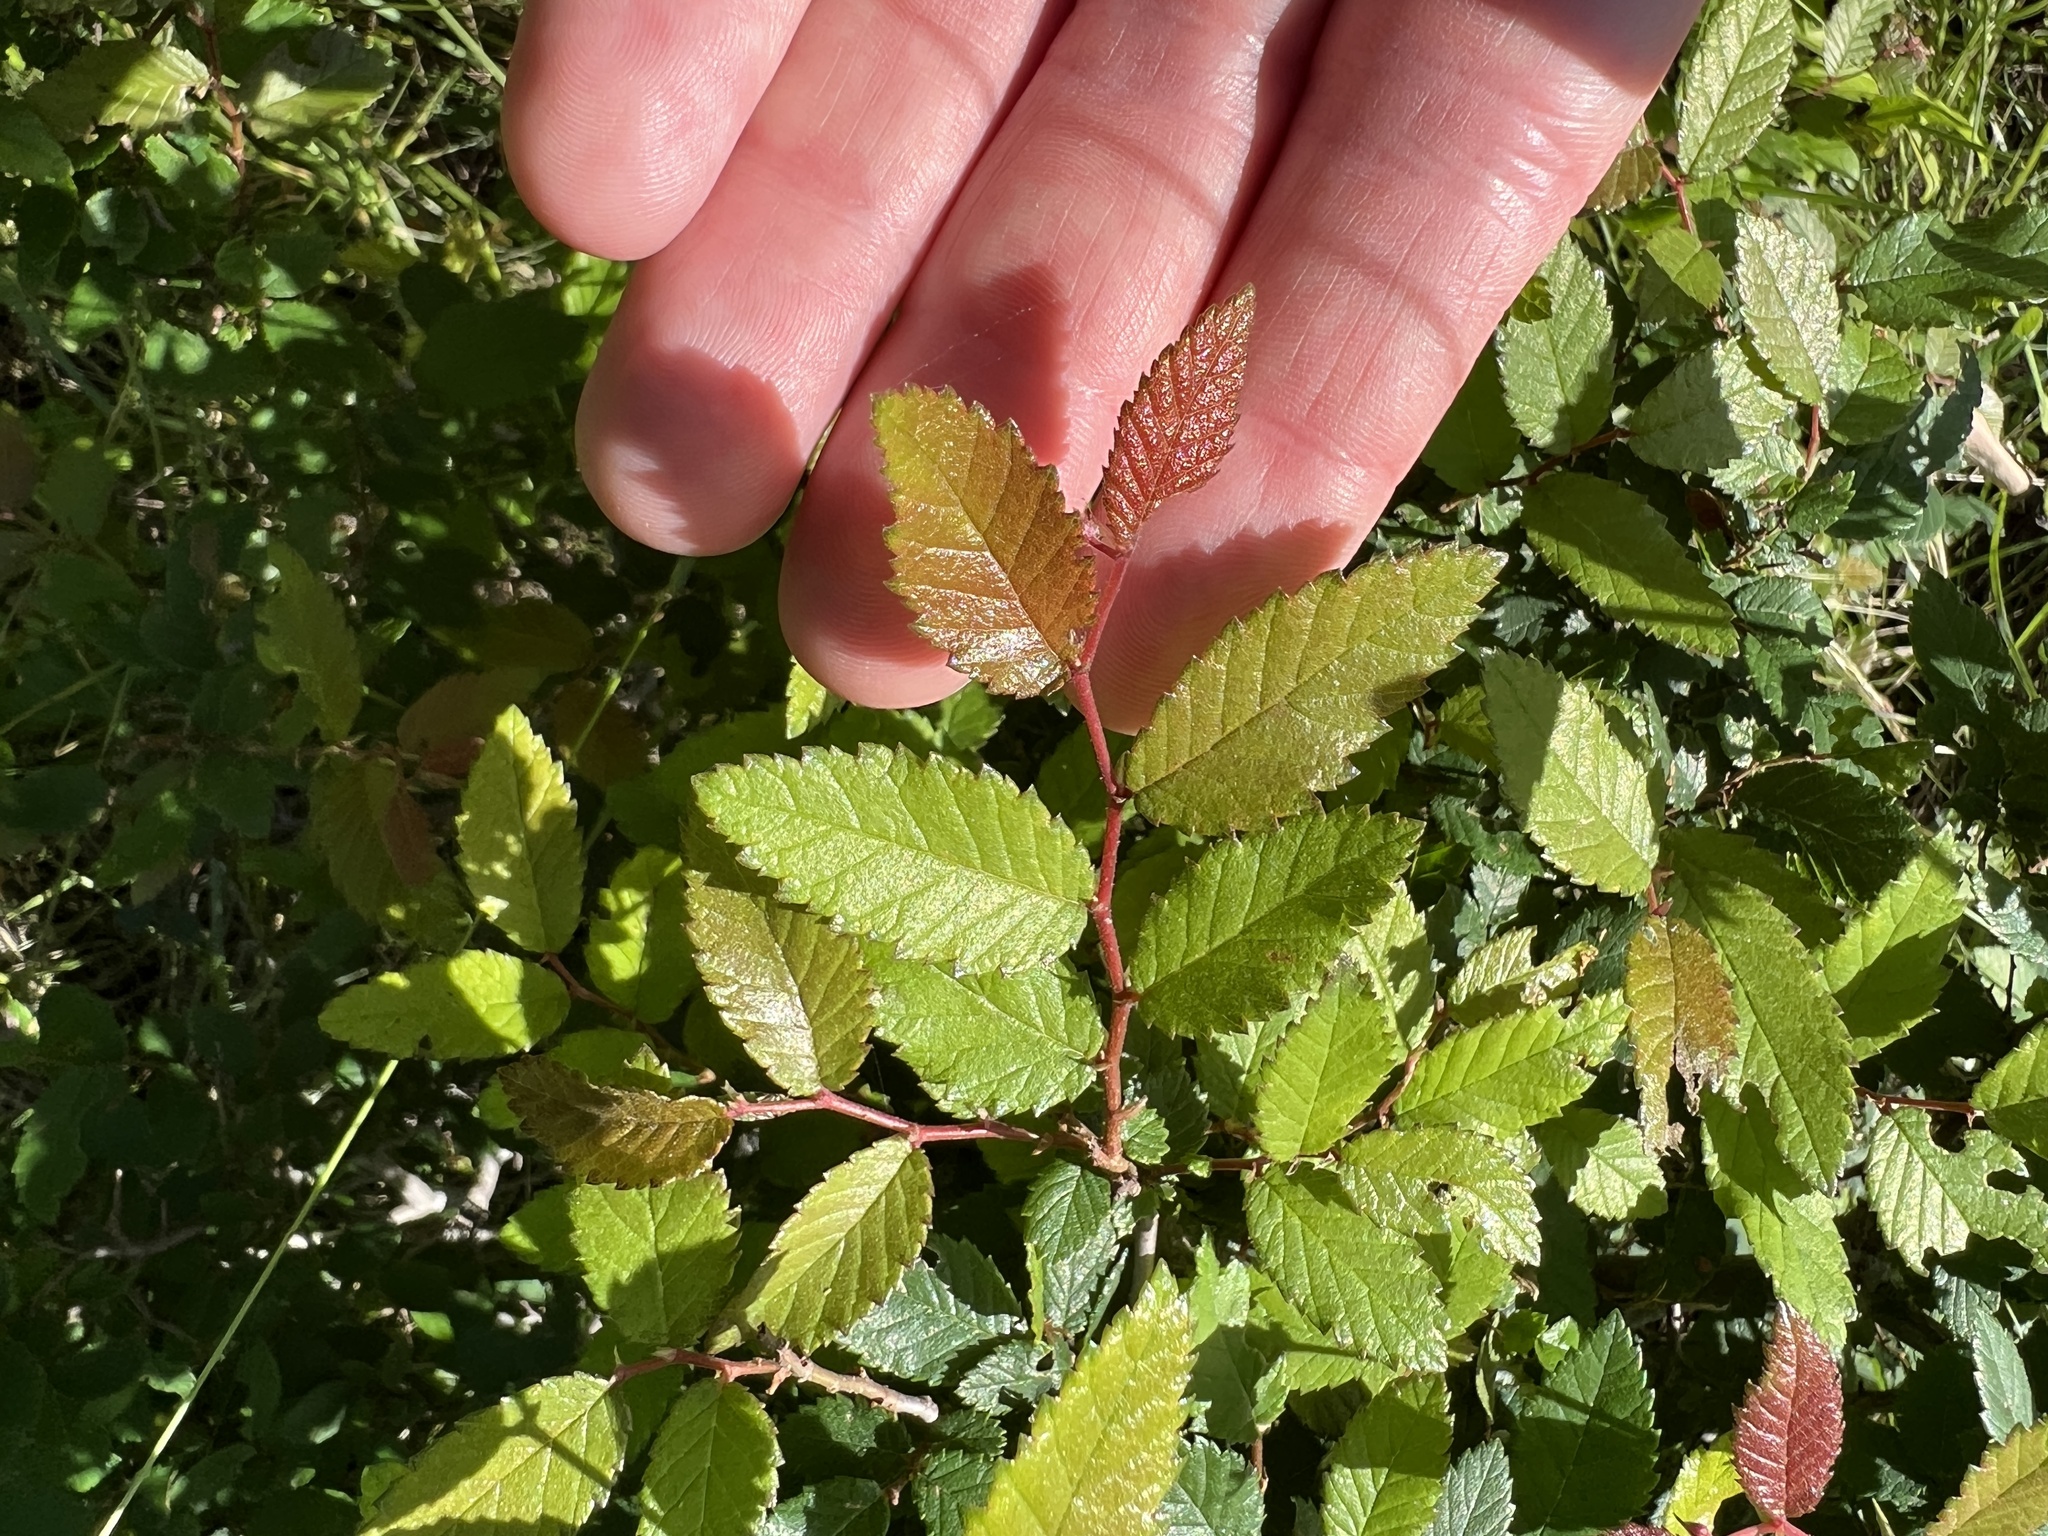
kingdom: Plantae
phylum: Tracheophyta
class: Magnoliopsida
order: Rosales
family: Ulmaceae
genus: Ulmus
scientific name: Ulmus crassifolia
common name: Basket elm
